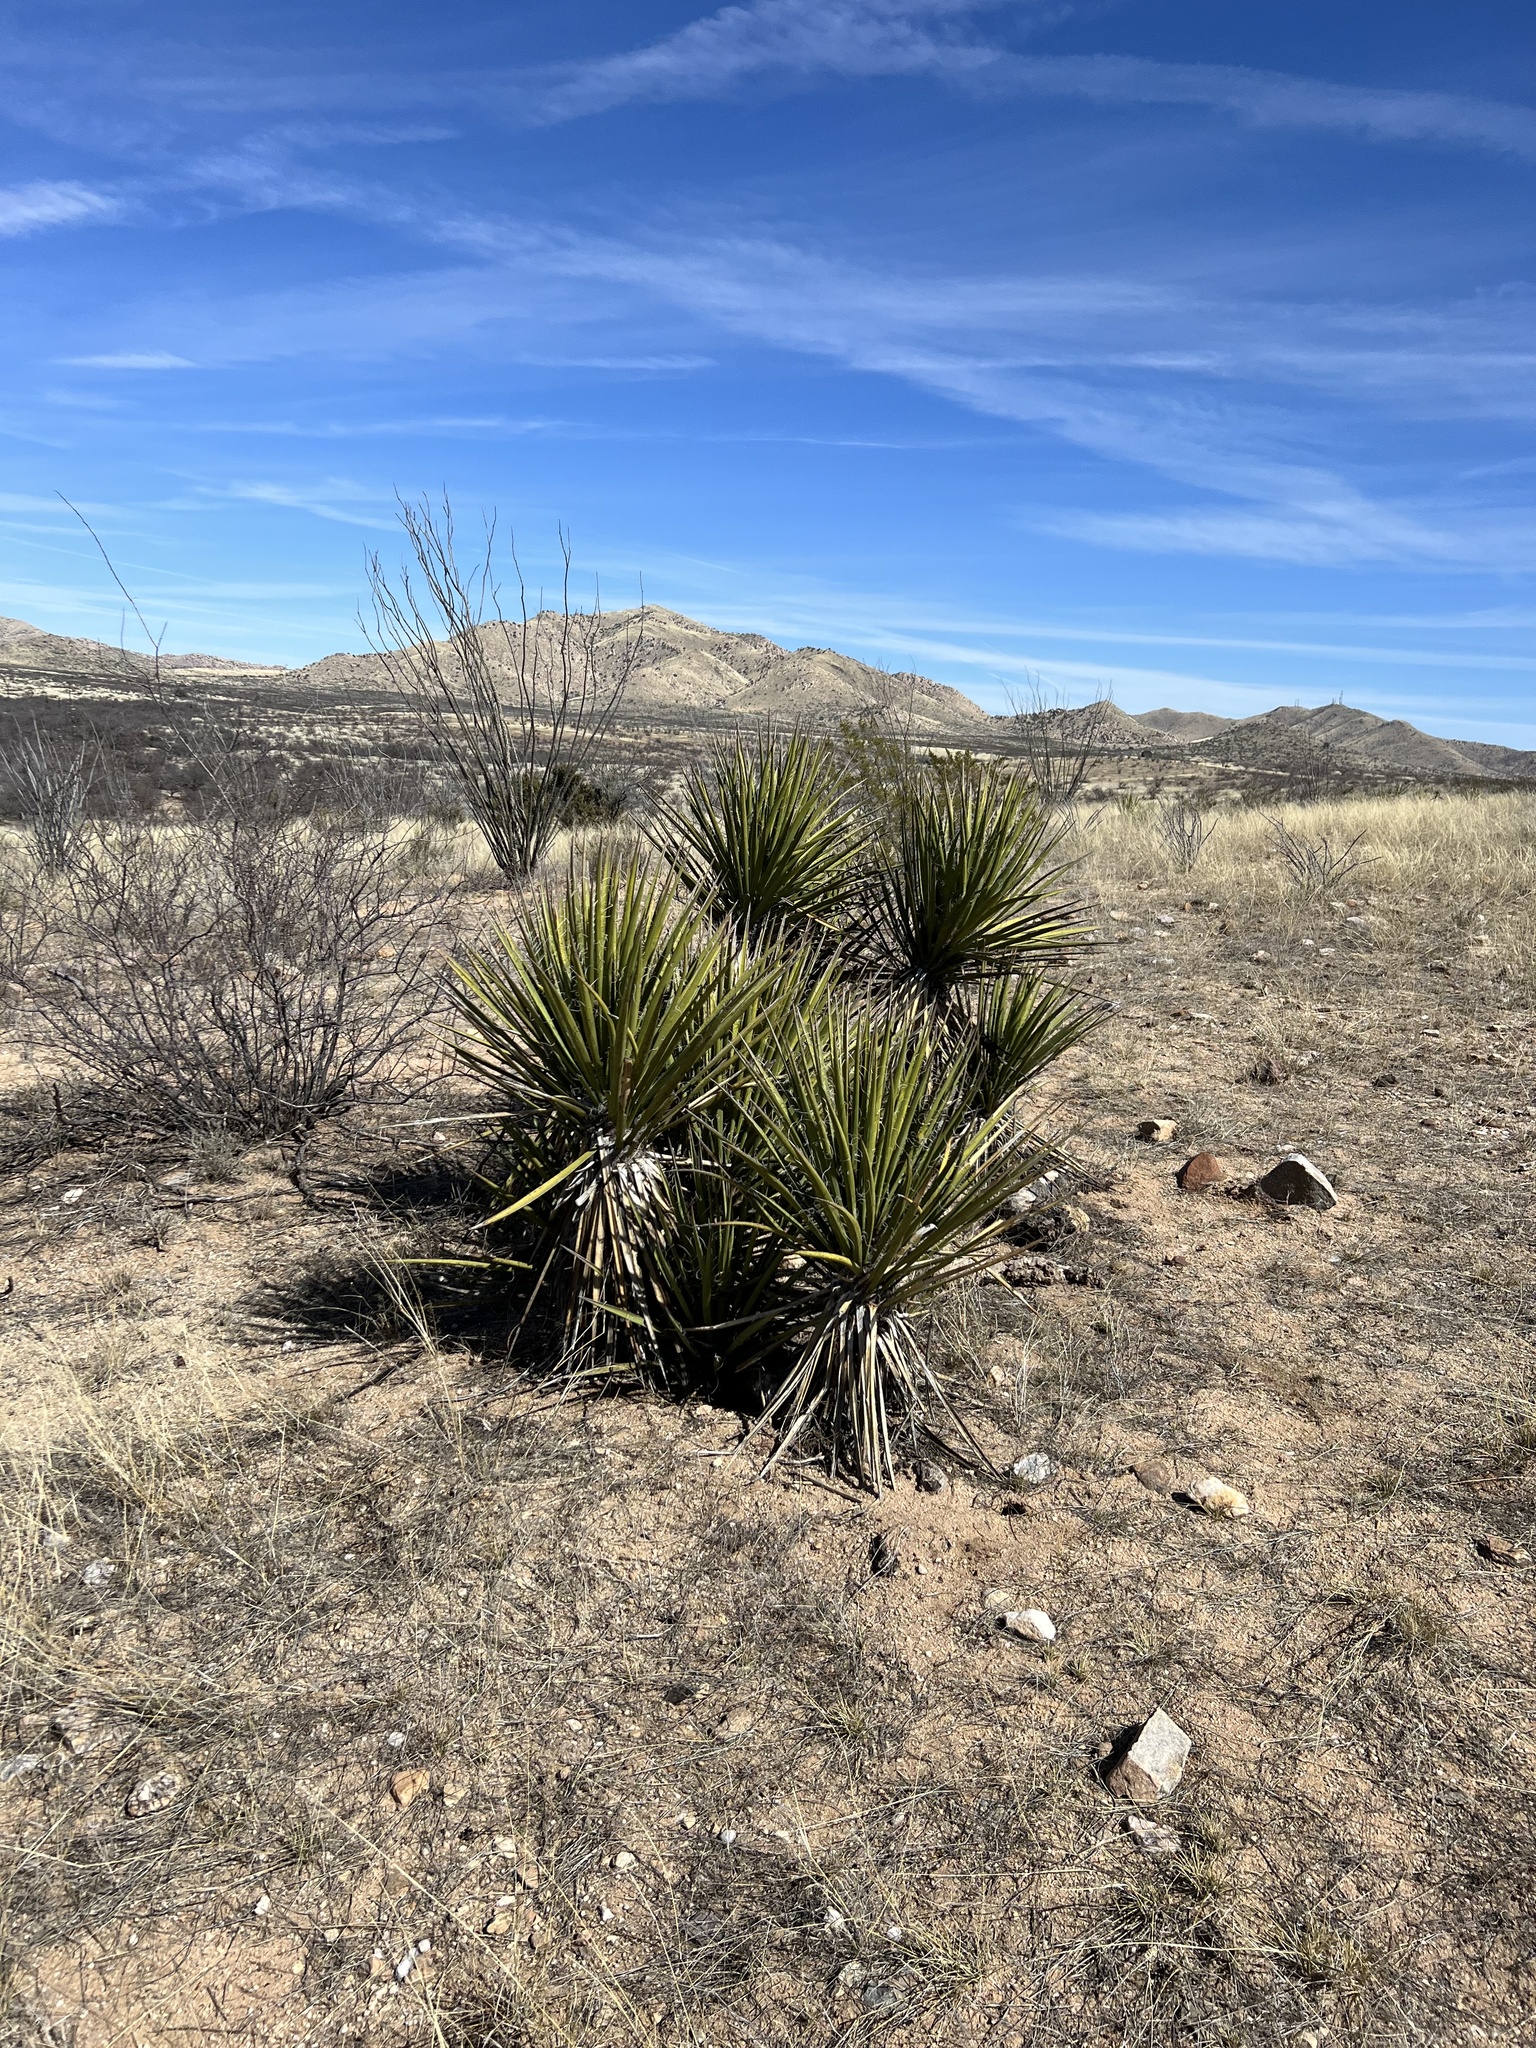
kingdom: Plantae
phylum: Tracheophyta
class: Liliopsida
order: Asparagales
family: Asparagaceae
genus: Yucca
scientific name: Yucca baccata
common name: Banana yucca
